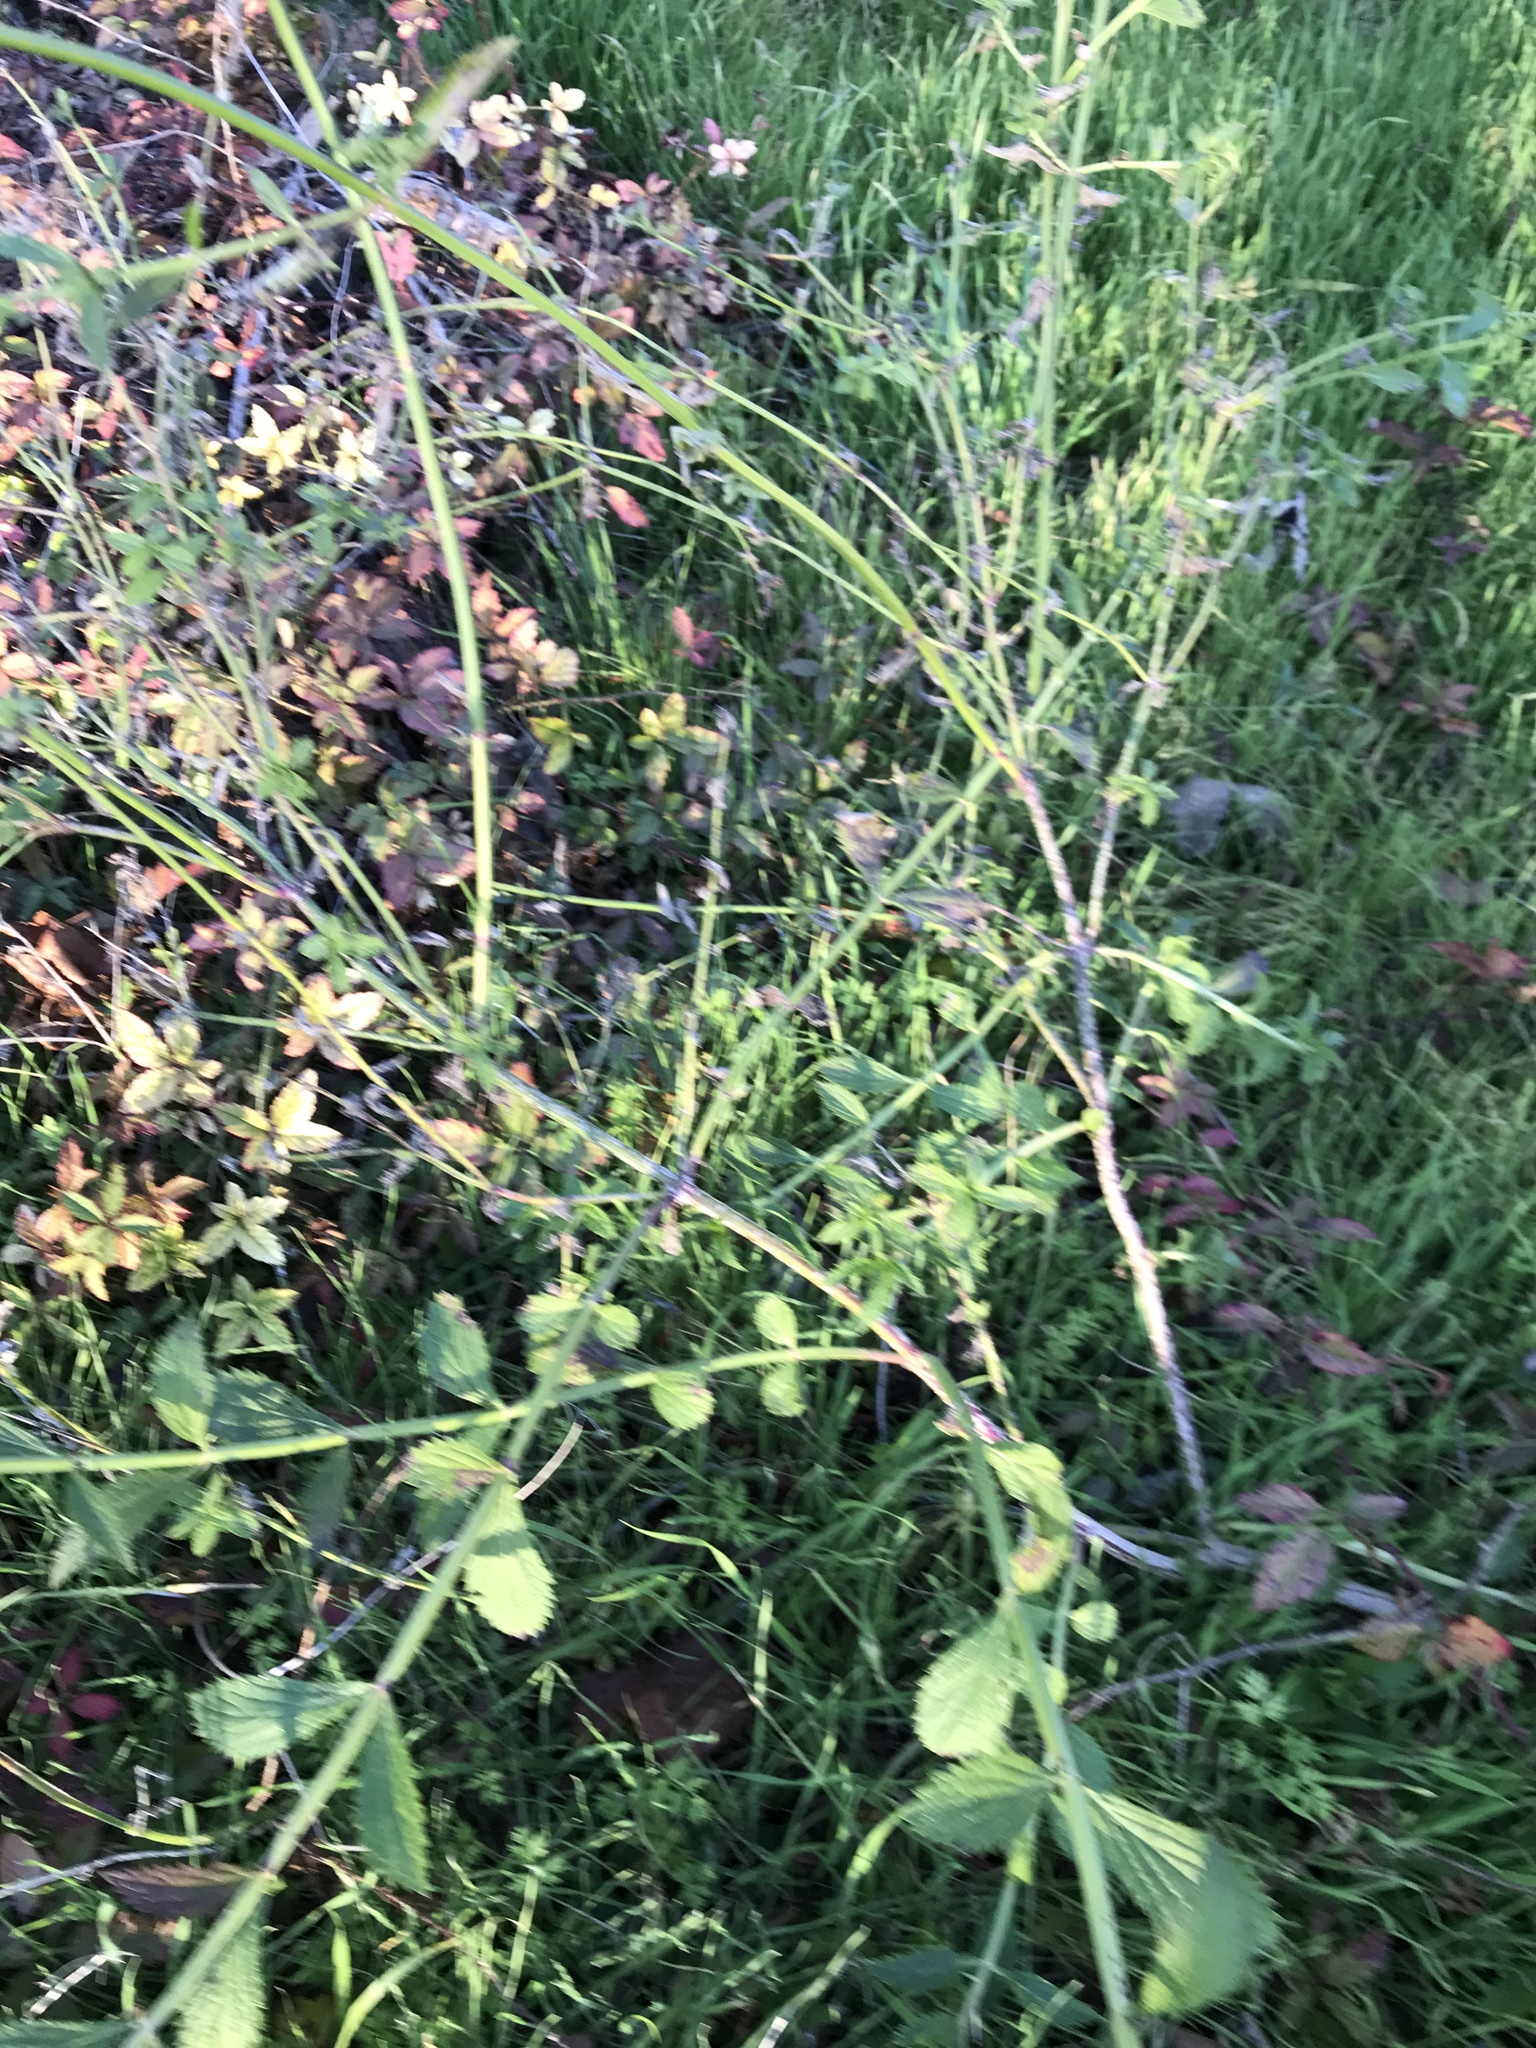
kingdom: Plantae
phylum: Tracheophyta
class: Magnoliopsida
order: Lamiales
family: Verbenaceae
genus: Verbena
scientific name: Verbena brasiliensis
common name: Brazilian vervain
